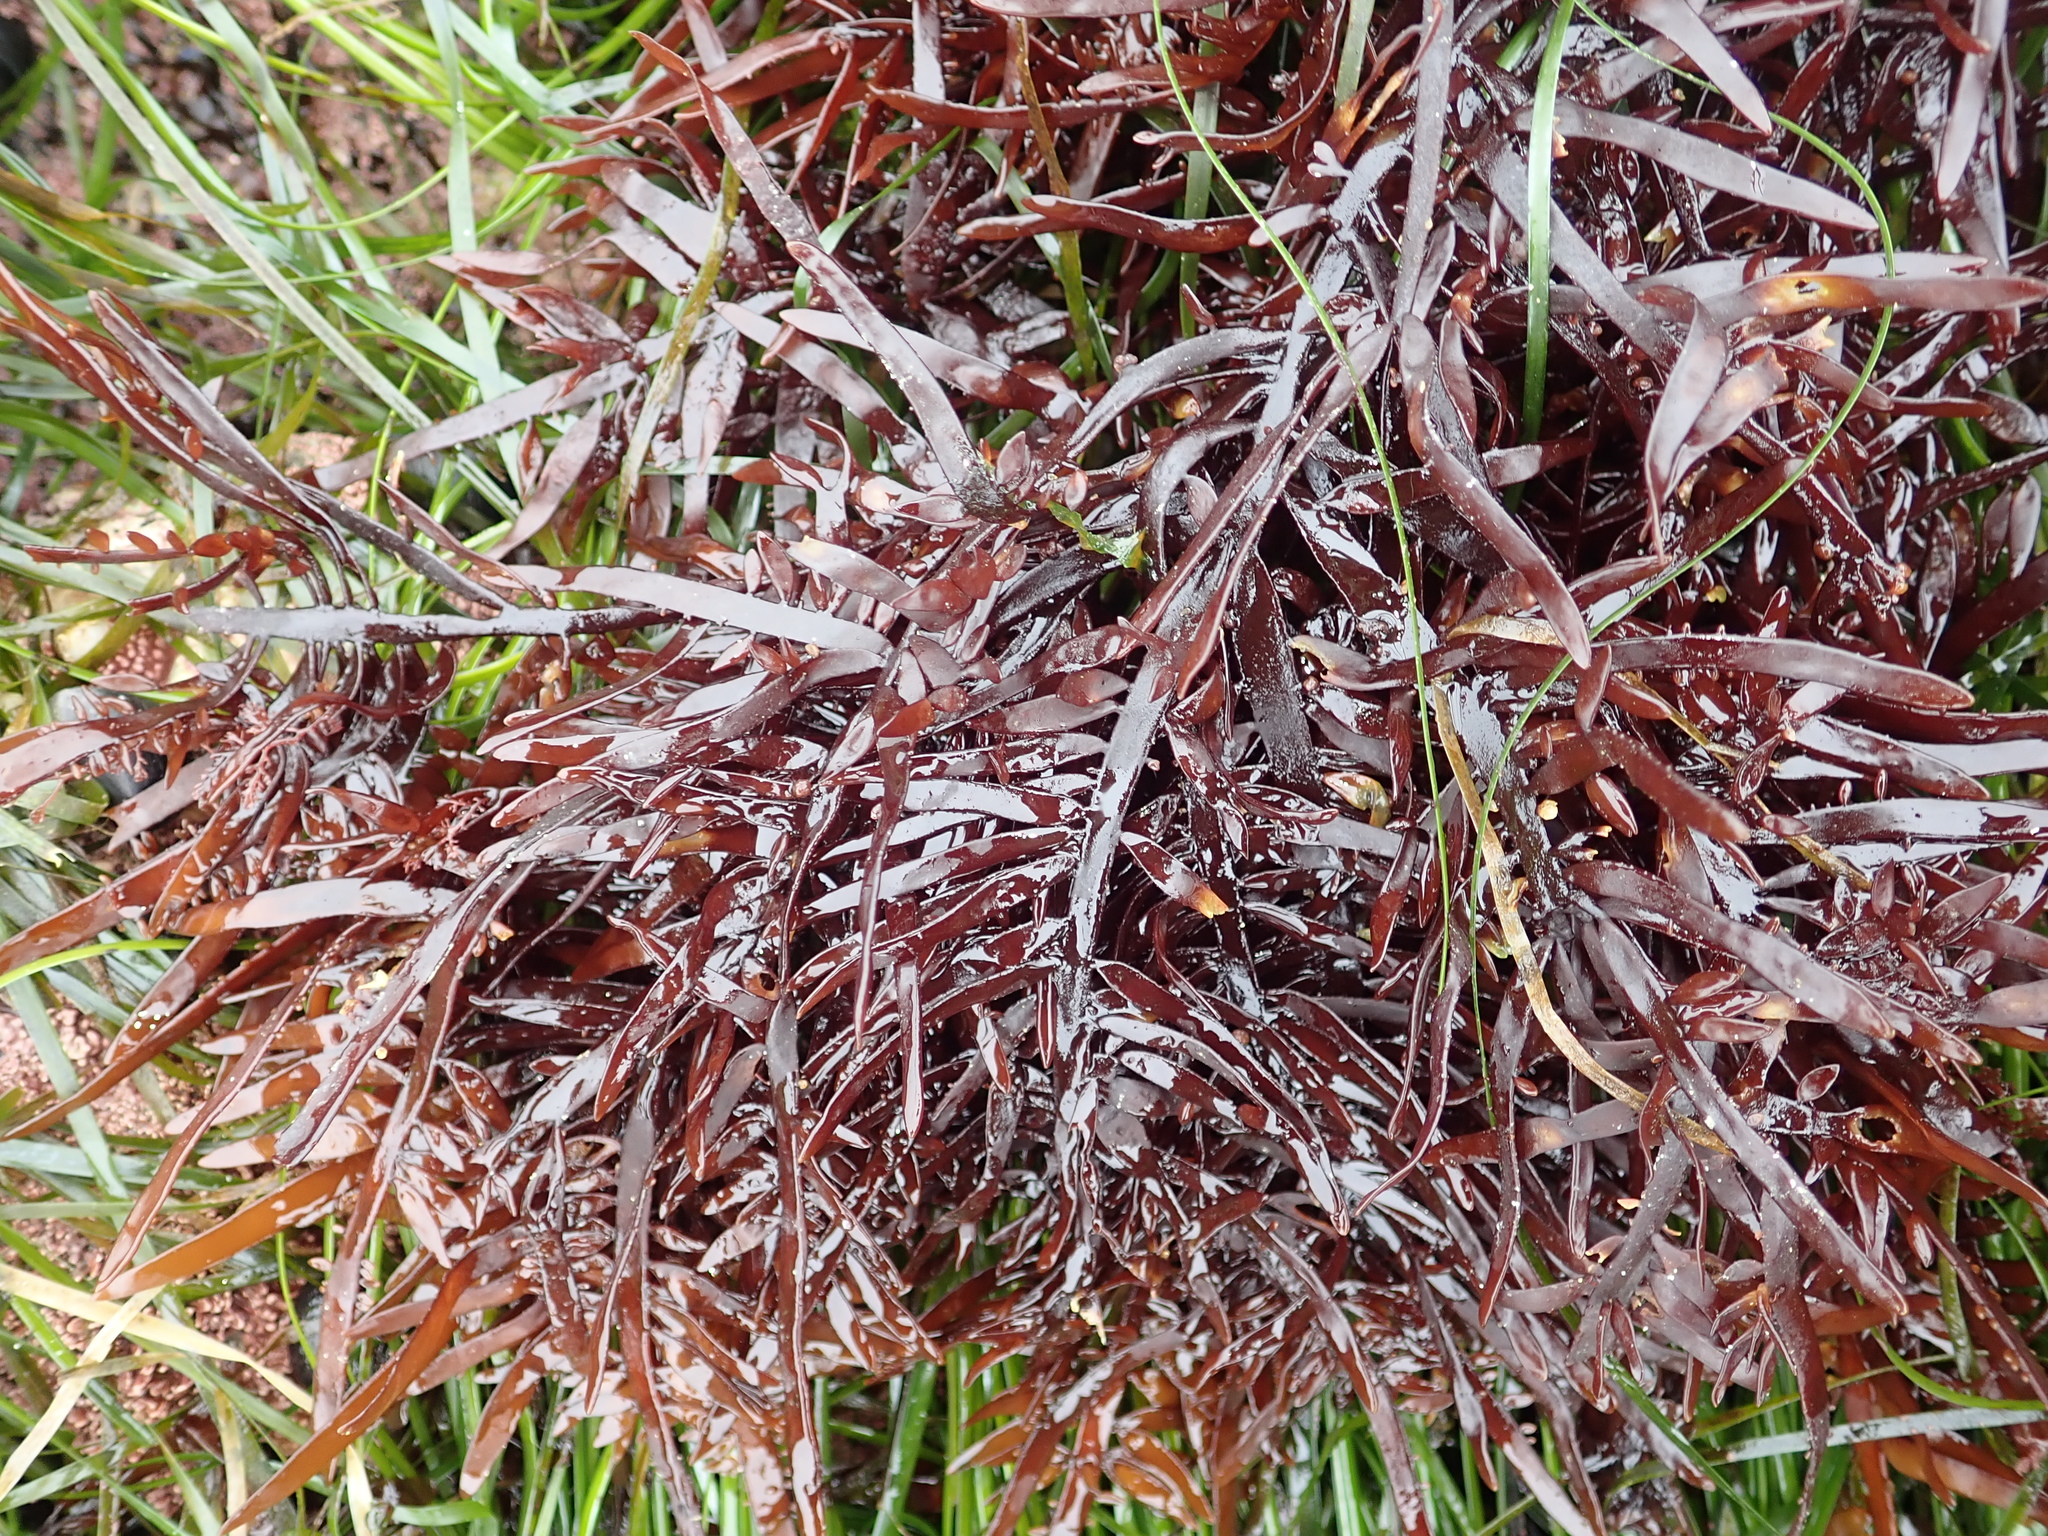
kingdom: Plantae
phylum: Rhodophyta
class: Florideophyceae
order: Halymeniales
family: Halymeniaceae
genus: Grateloupia
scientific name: Grateloupia Prionitis lanceolata
